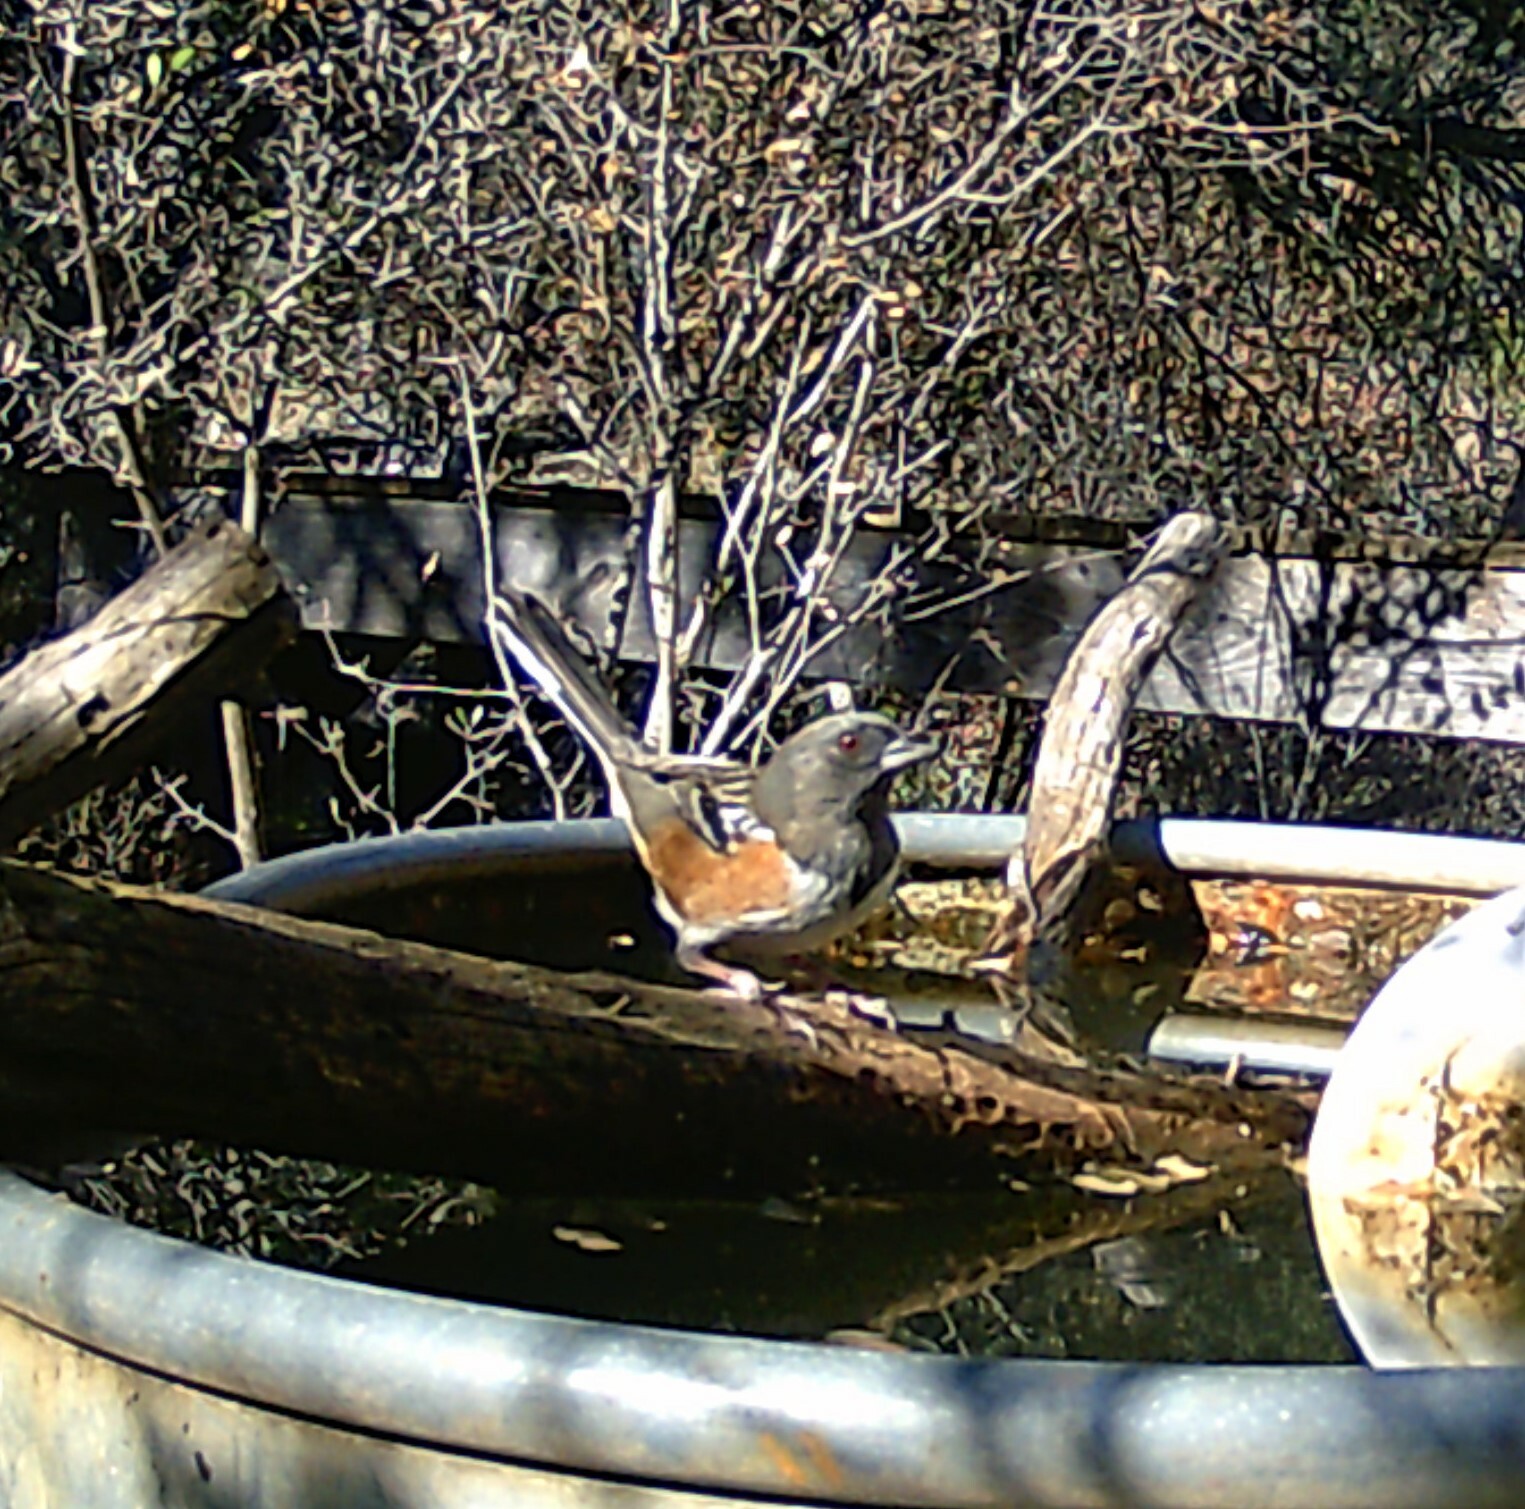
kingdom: Animalia
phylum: Chordata
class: Aves
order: Passeriformes
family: Passerellidae
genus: Pipilo
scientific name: Pipilo maculatus
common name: Spotted towhee
